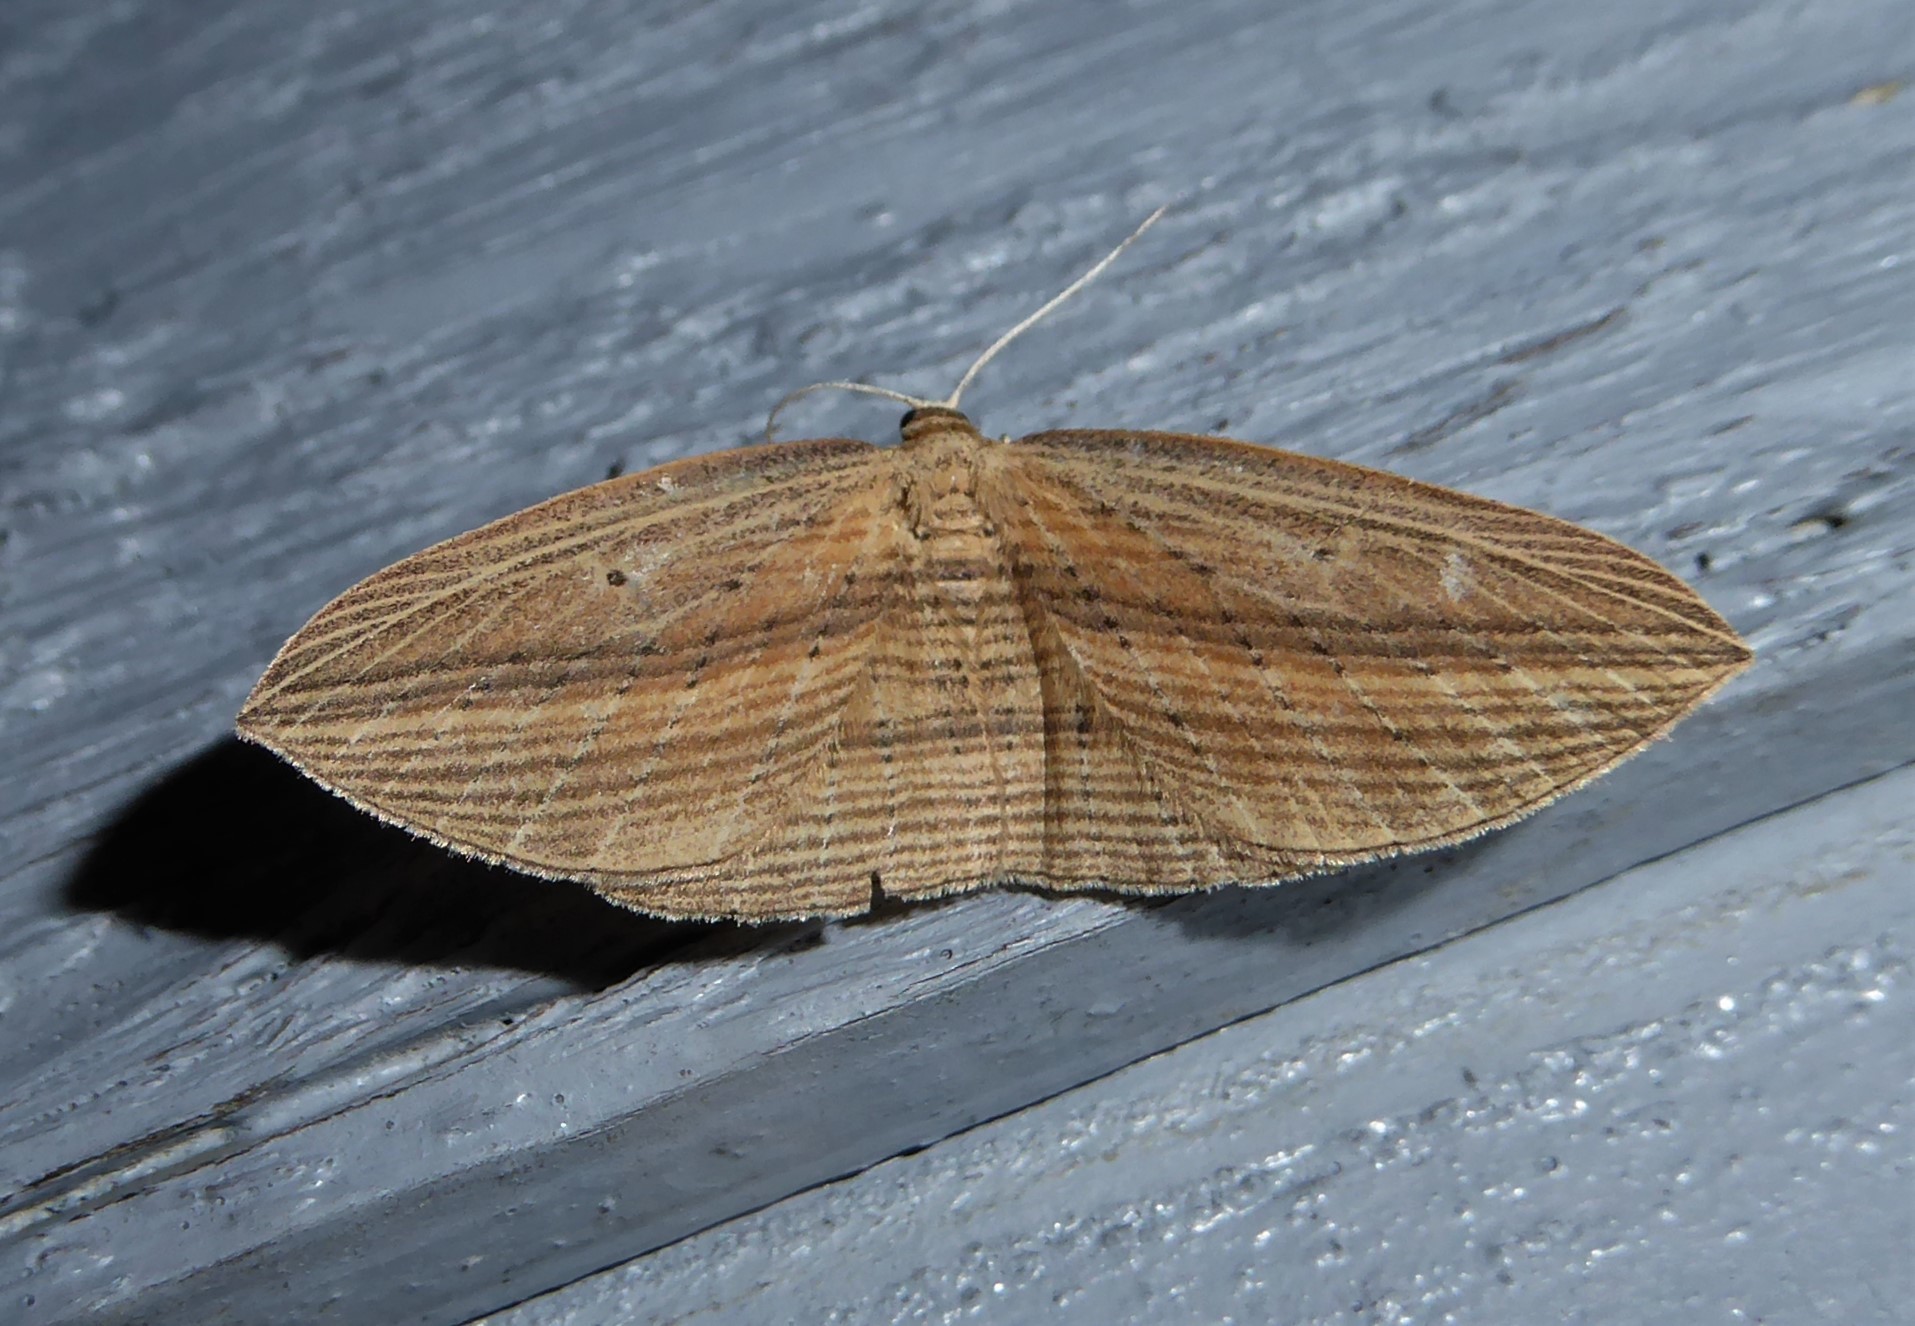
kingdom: Animalia
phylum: Arthropoda
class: Insecta
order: Lepidoptera
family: Geometridae
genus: Epiphryne
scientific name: Epiphryne verriculata
